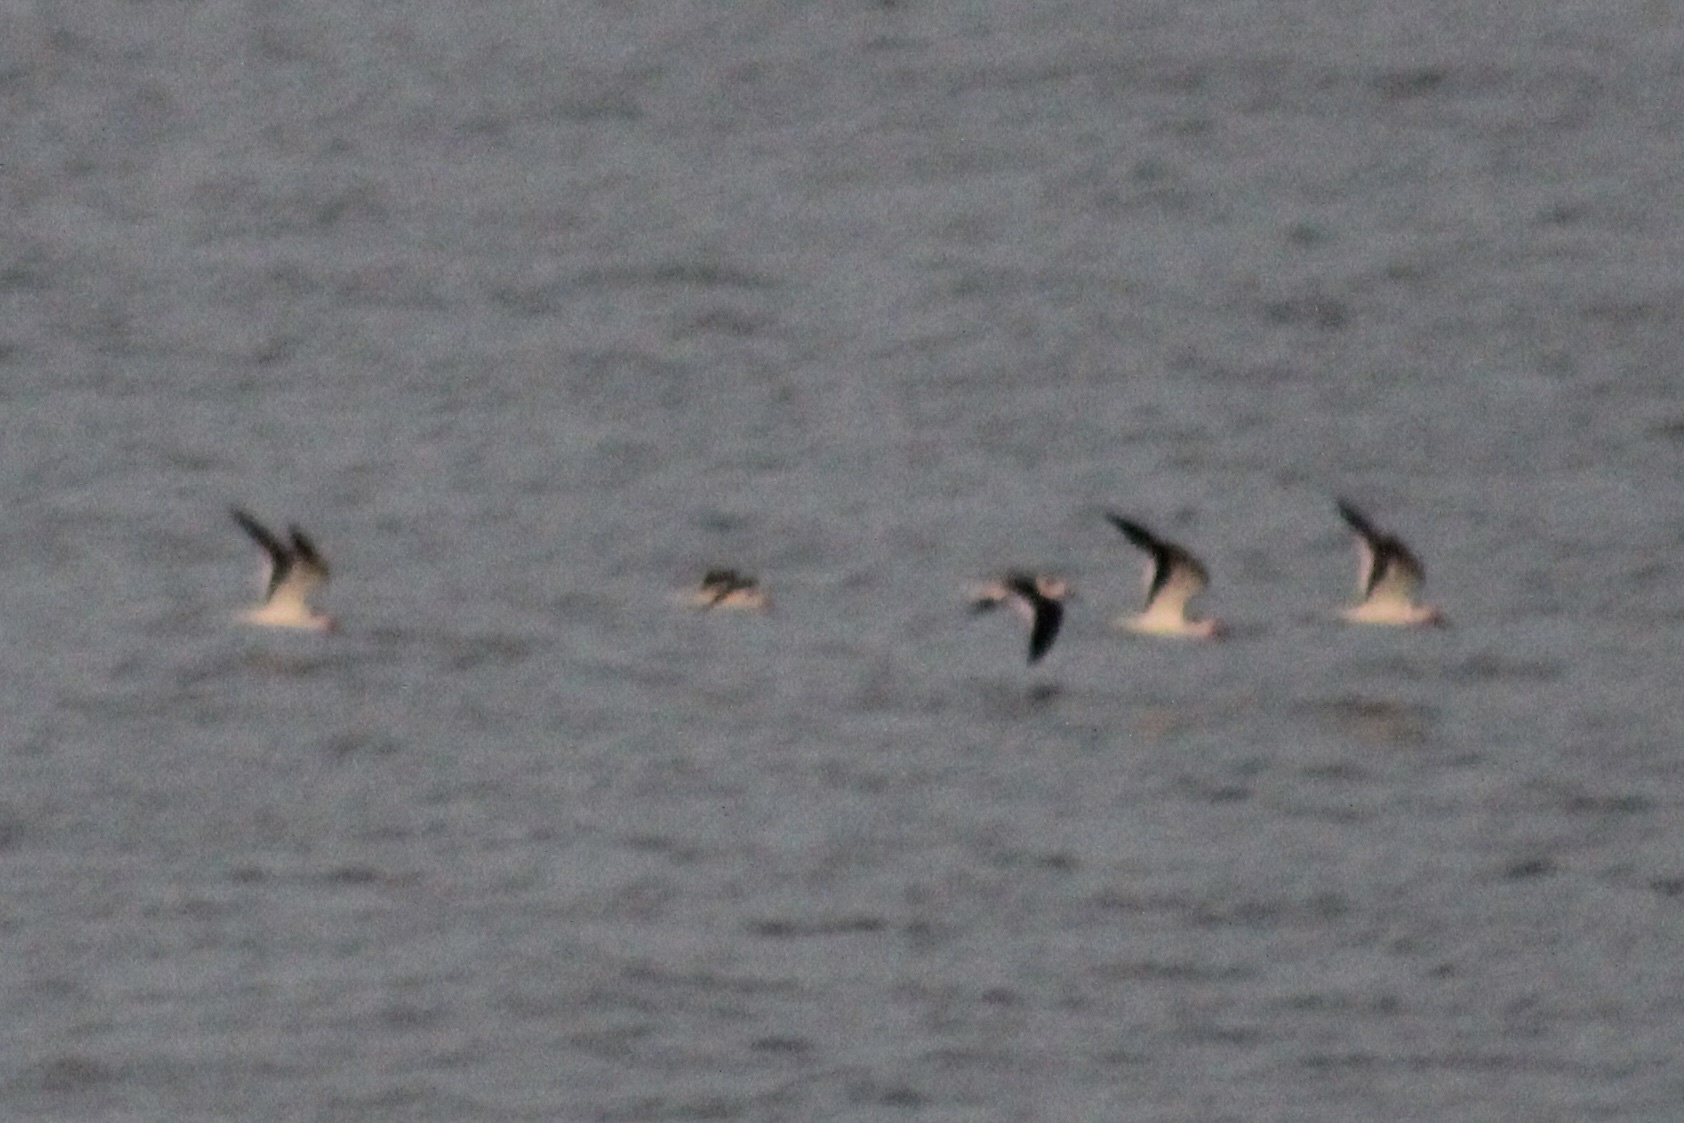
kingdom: Animalia
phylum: Chordata
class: Aves
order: Charadriiformes
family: Laridae
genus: Rynchops
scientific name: Rynchops niger
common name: Black skimmer
